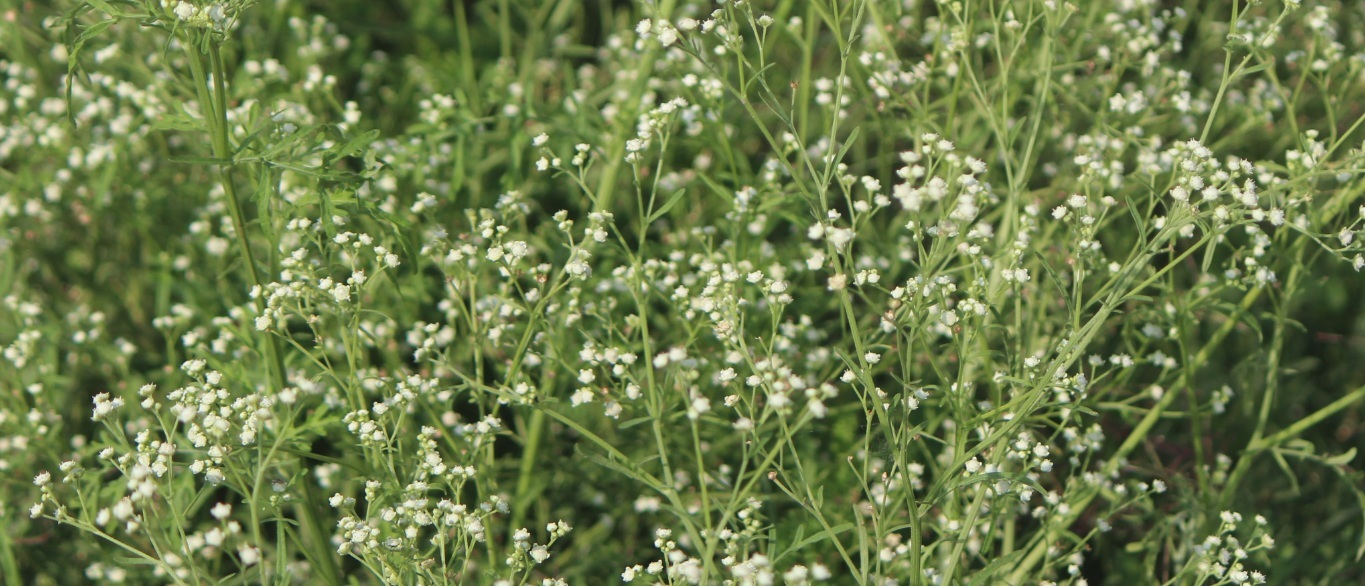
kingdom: Plantae
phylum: Tracheophyta
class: Magnoliopsida
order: Asterales
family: Asteraceae
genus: Parthenium
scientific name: Parthenium hysterophorus
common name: Santa maria feverfew
